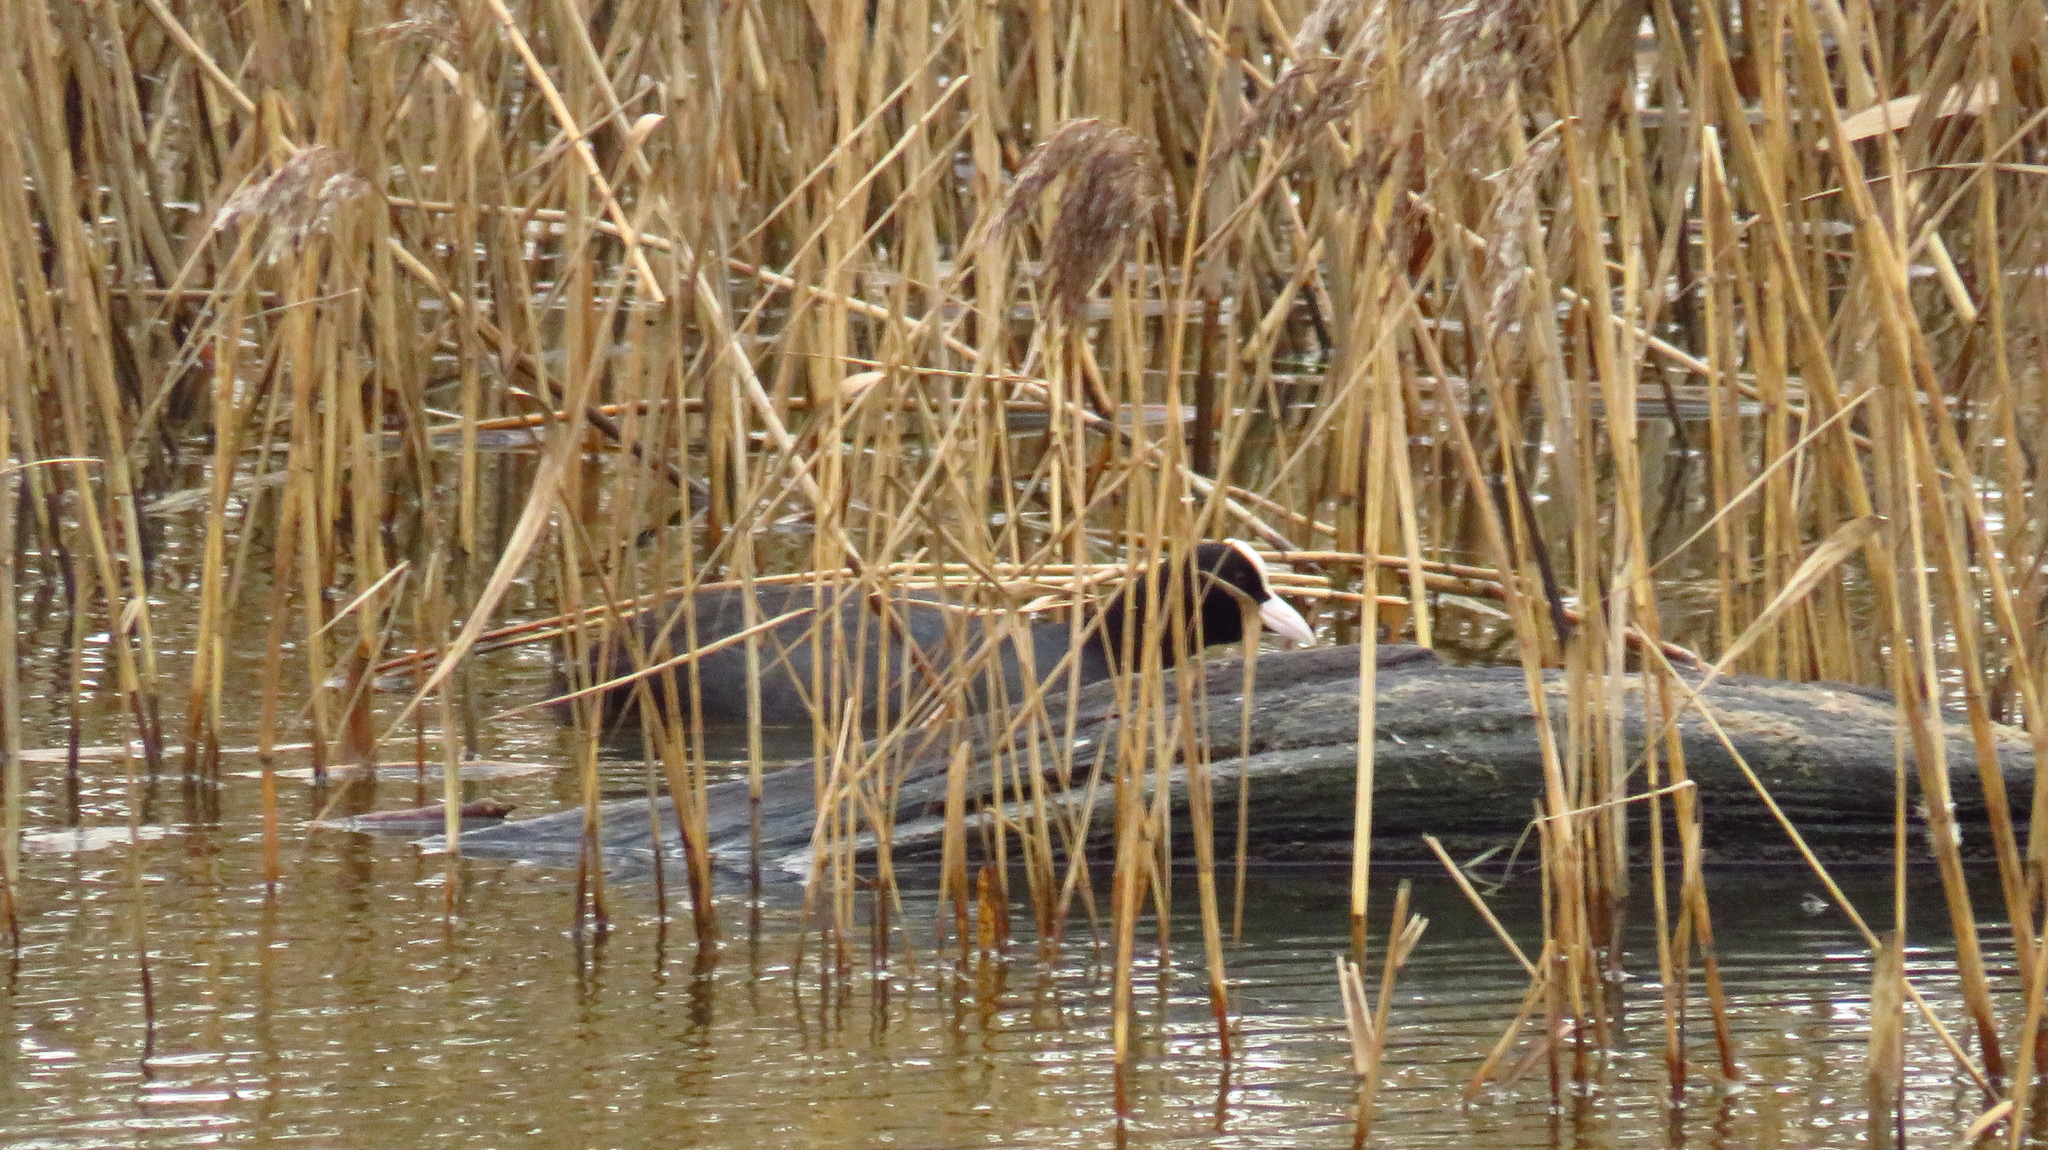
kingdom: Animalia
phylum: Chordata
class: Aves
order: Gruiformes
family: Rallidae
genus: Fulica
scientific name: Fulica atra
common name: Eurasian coot
